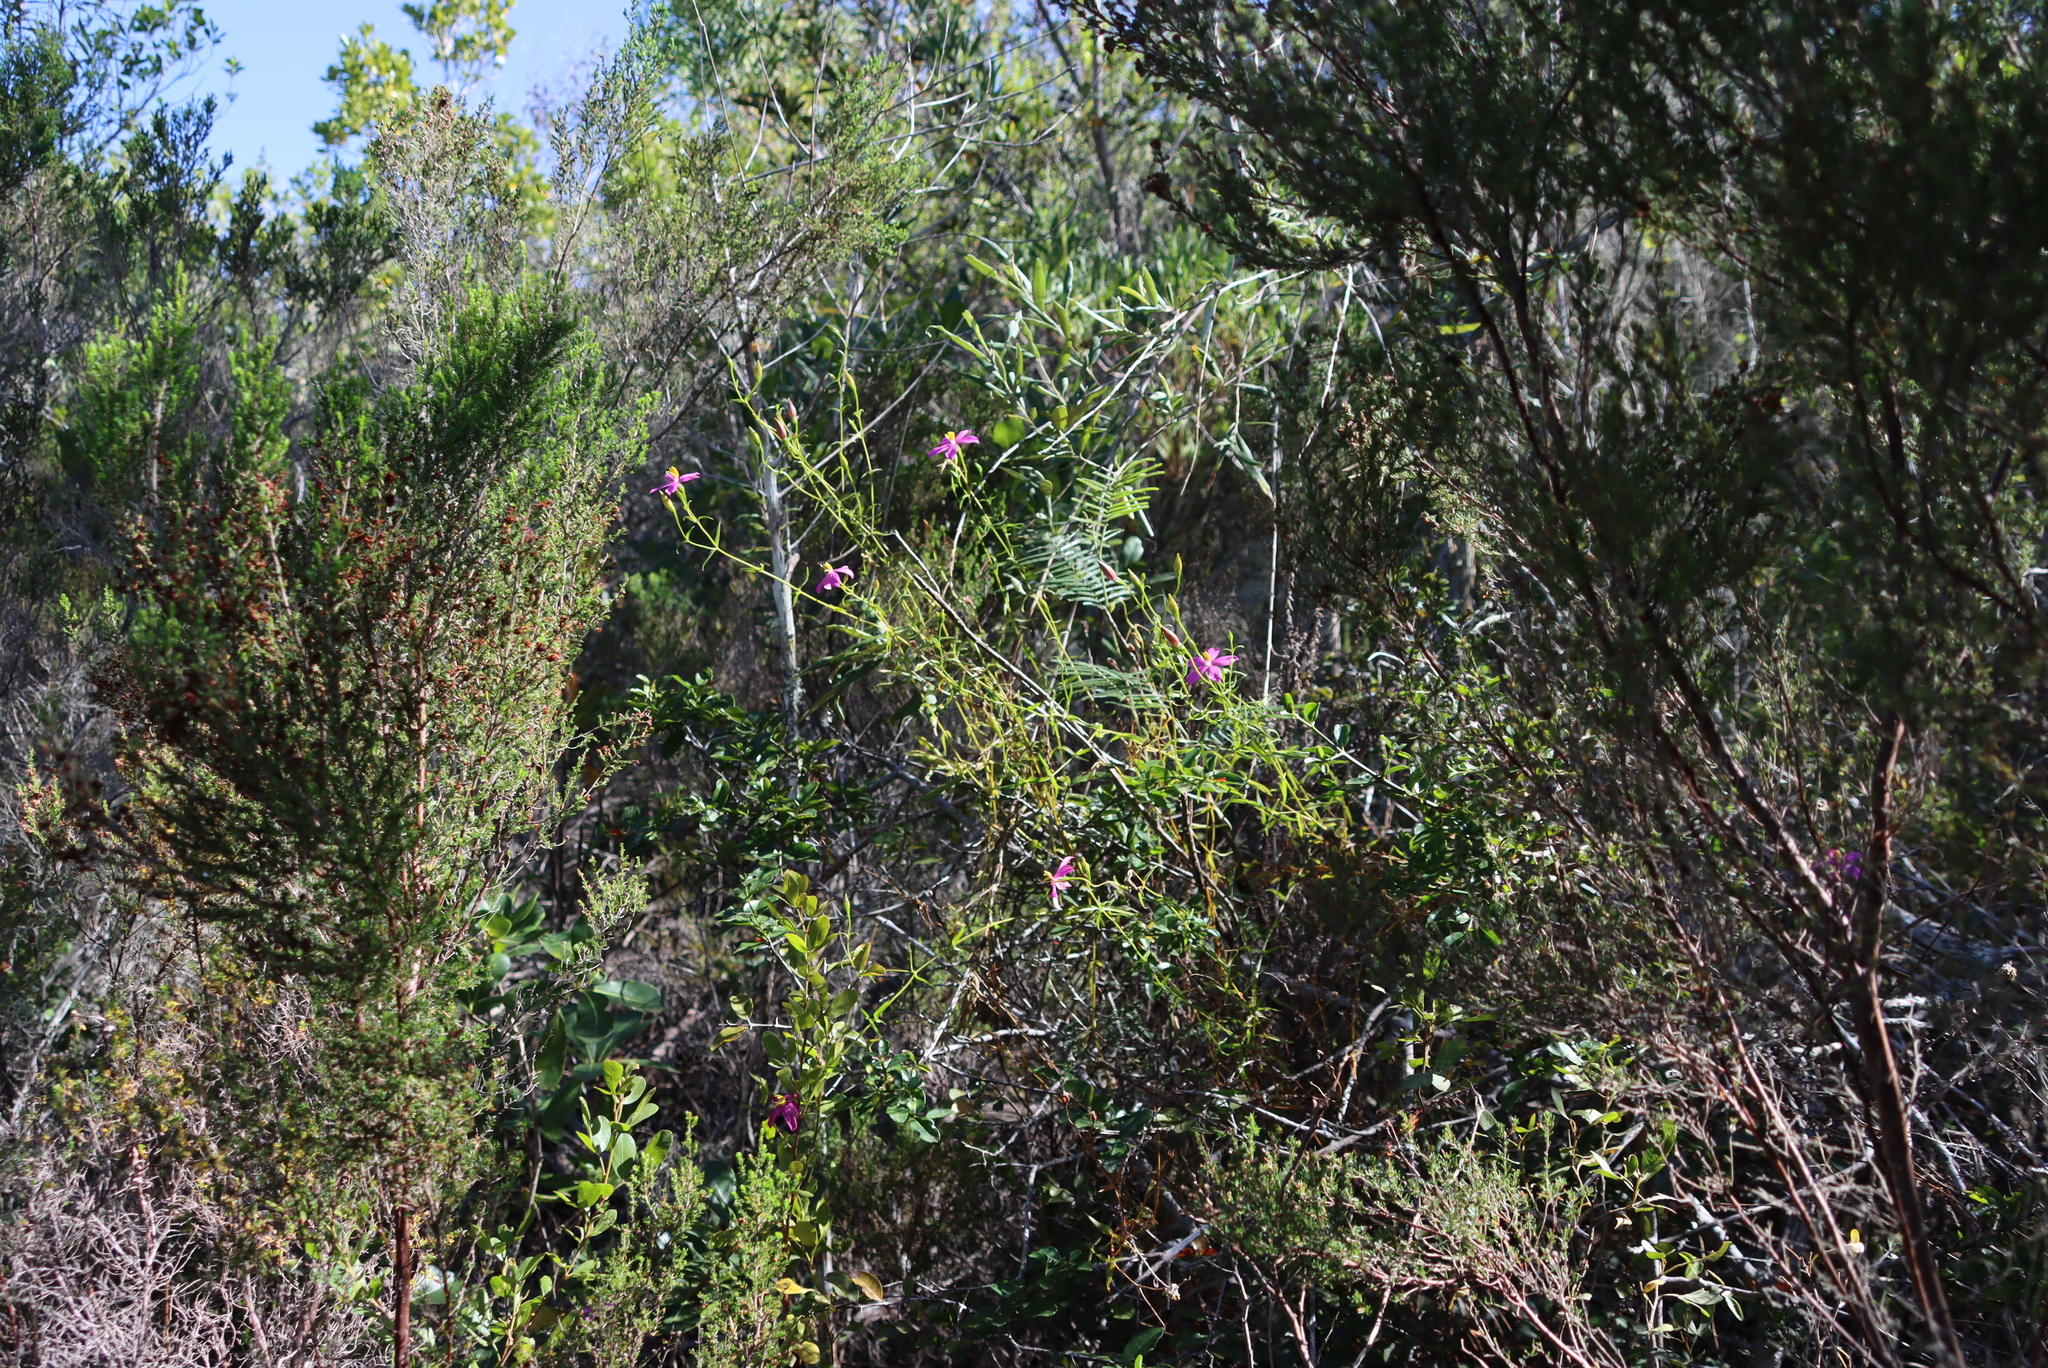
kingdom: Plantae
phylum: Tracheophyta
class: Magnoliopsida
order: Gentianales
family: Gentianaceae
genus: Chironia
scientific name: Chironia tetragona
